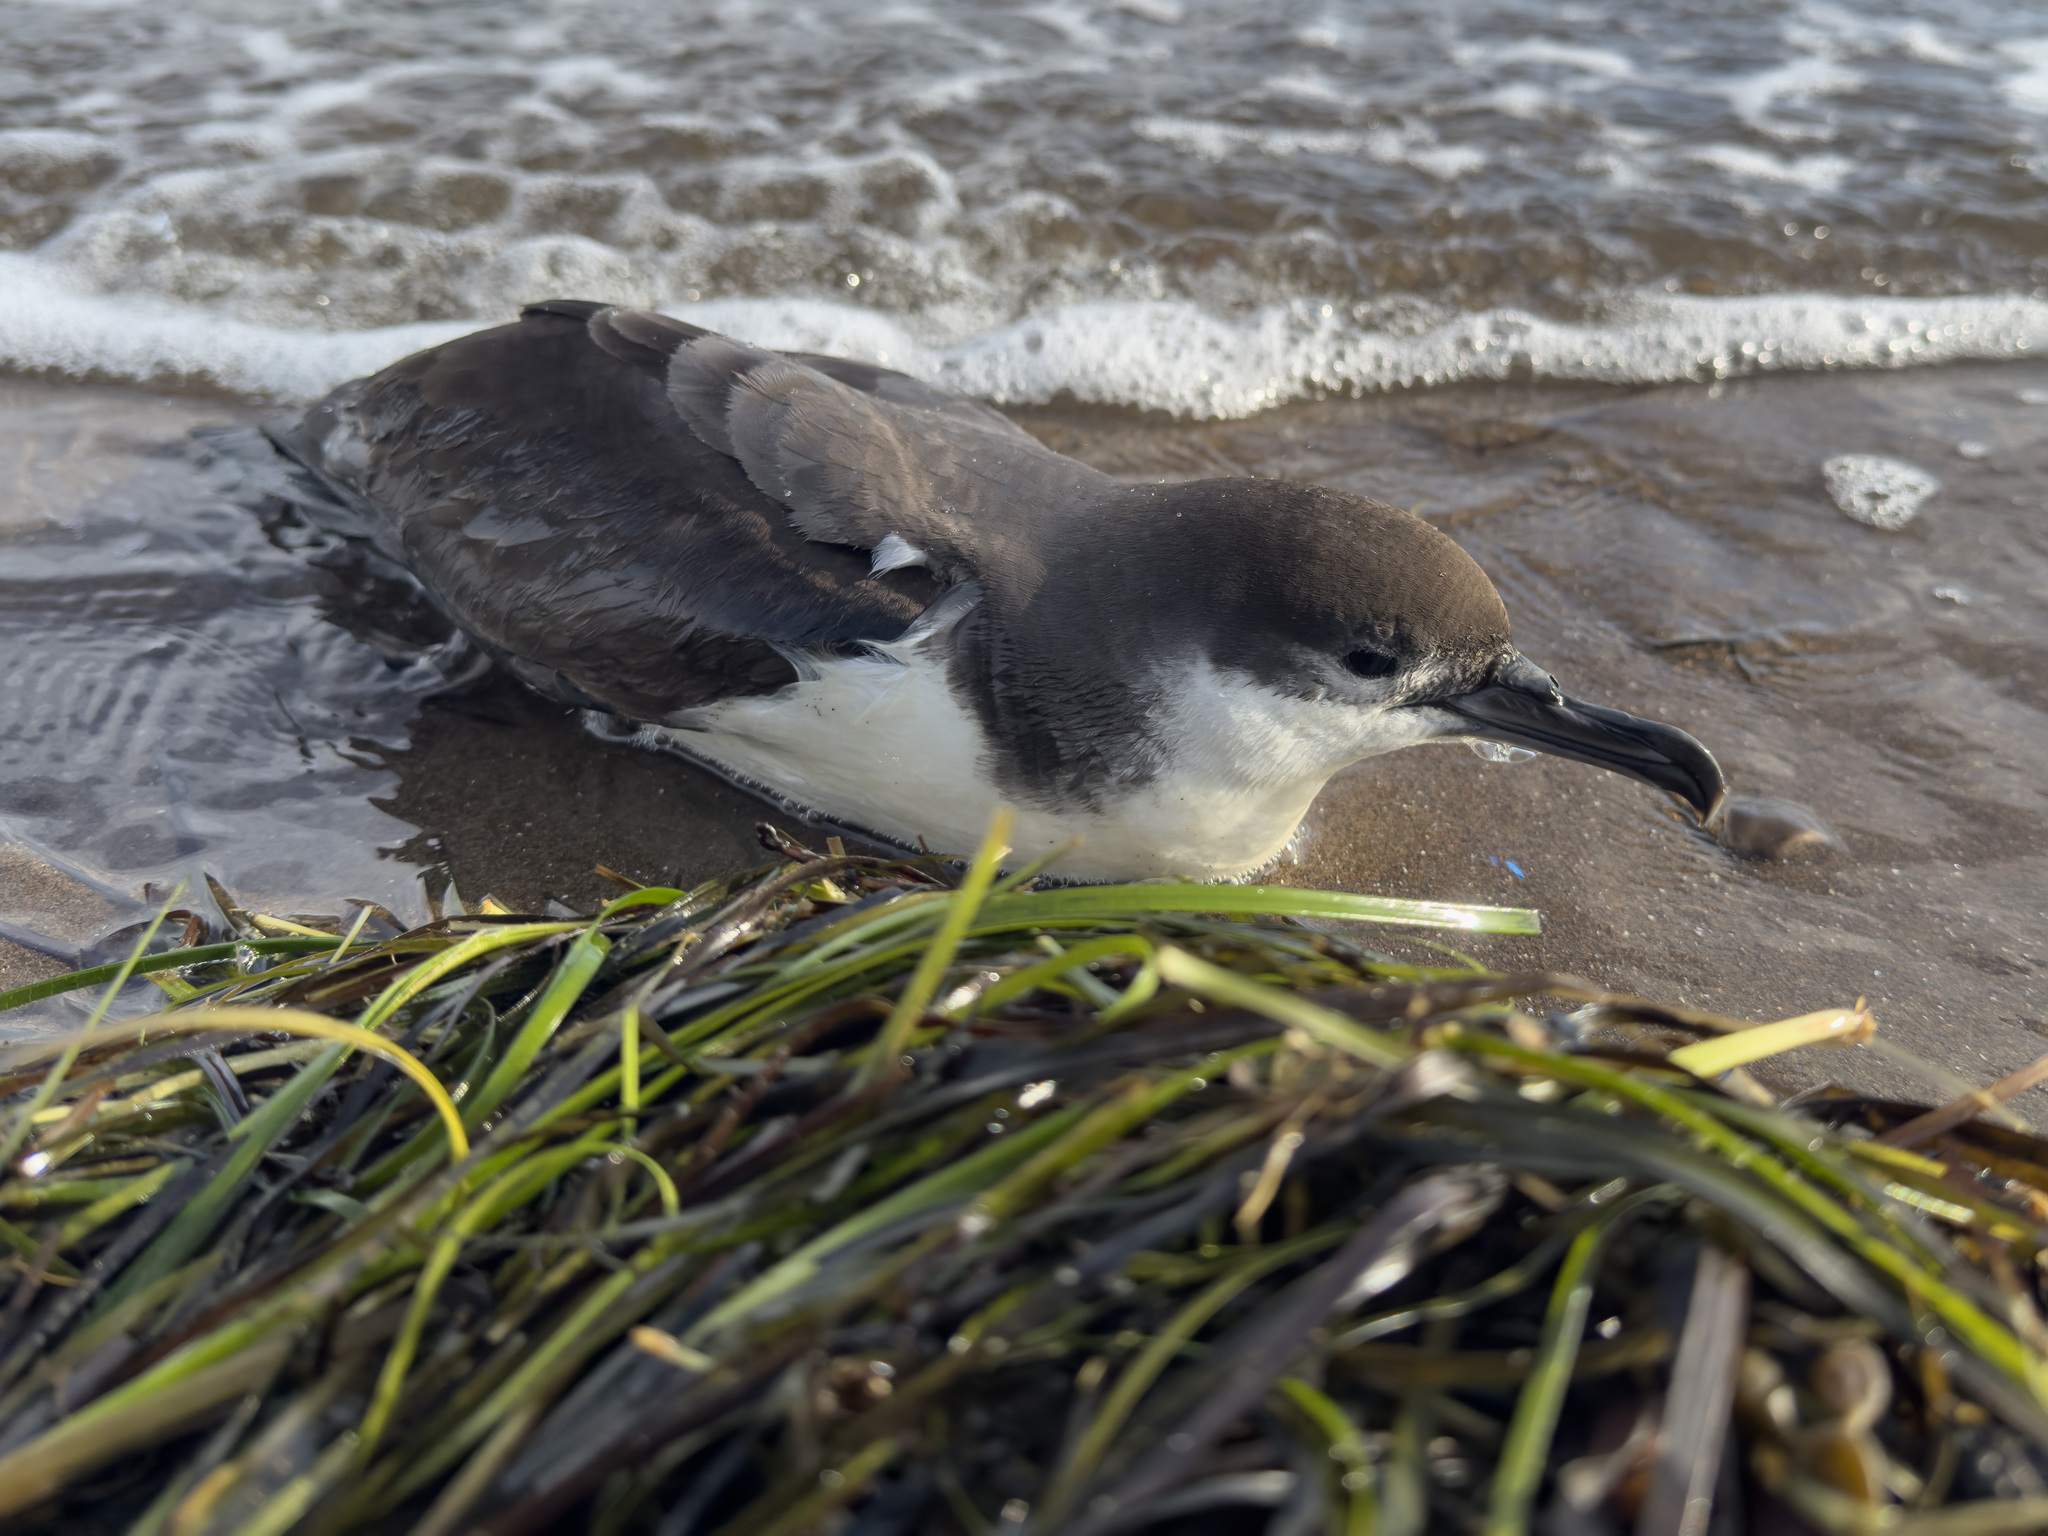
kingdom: Animalia
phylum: Chordata
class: Aves
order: Procellariiformes
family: Procellariidae
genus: Puffinus
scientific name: Puffinus bulleri
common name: Buller's shearwater
